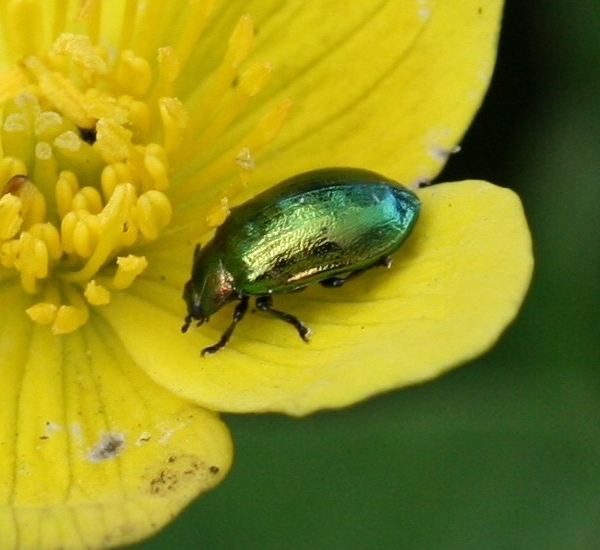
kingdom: Animalia
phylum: Arthropoda
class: Insecta
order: Coleoptera
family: Chrysomelidae
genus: Plagiosterna
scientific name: Plagiosterna aenea
